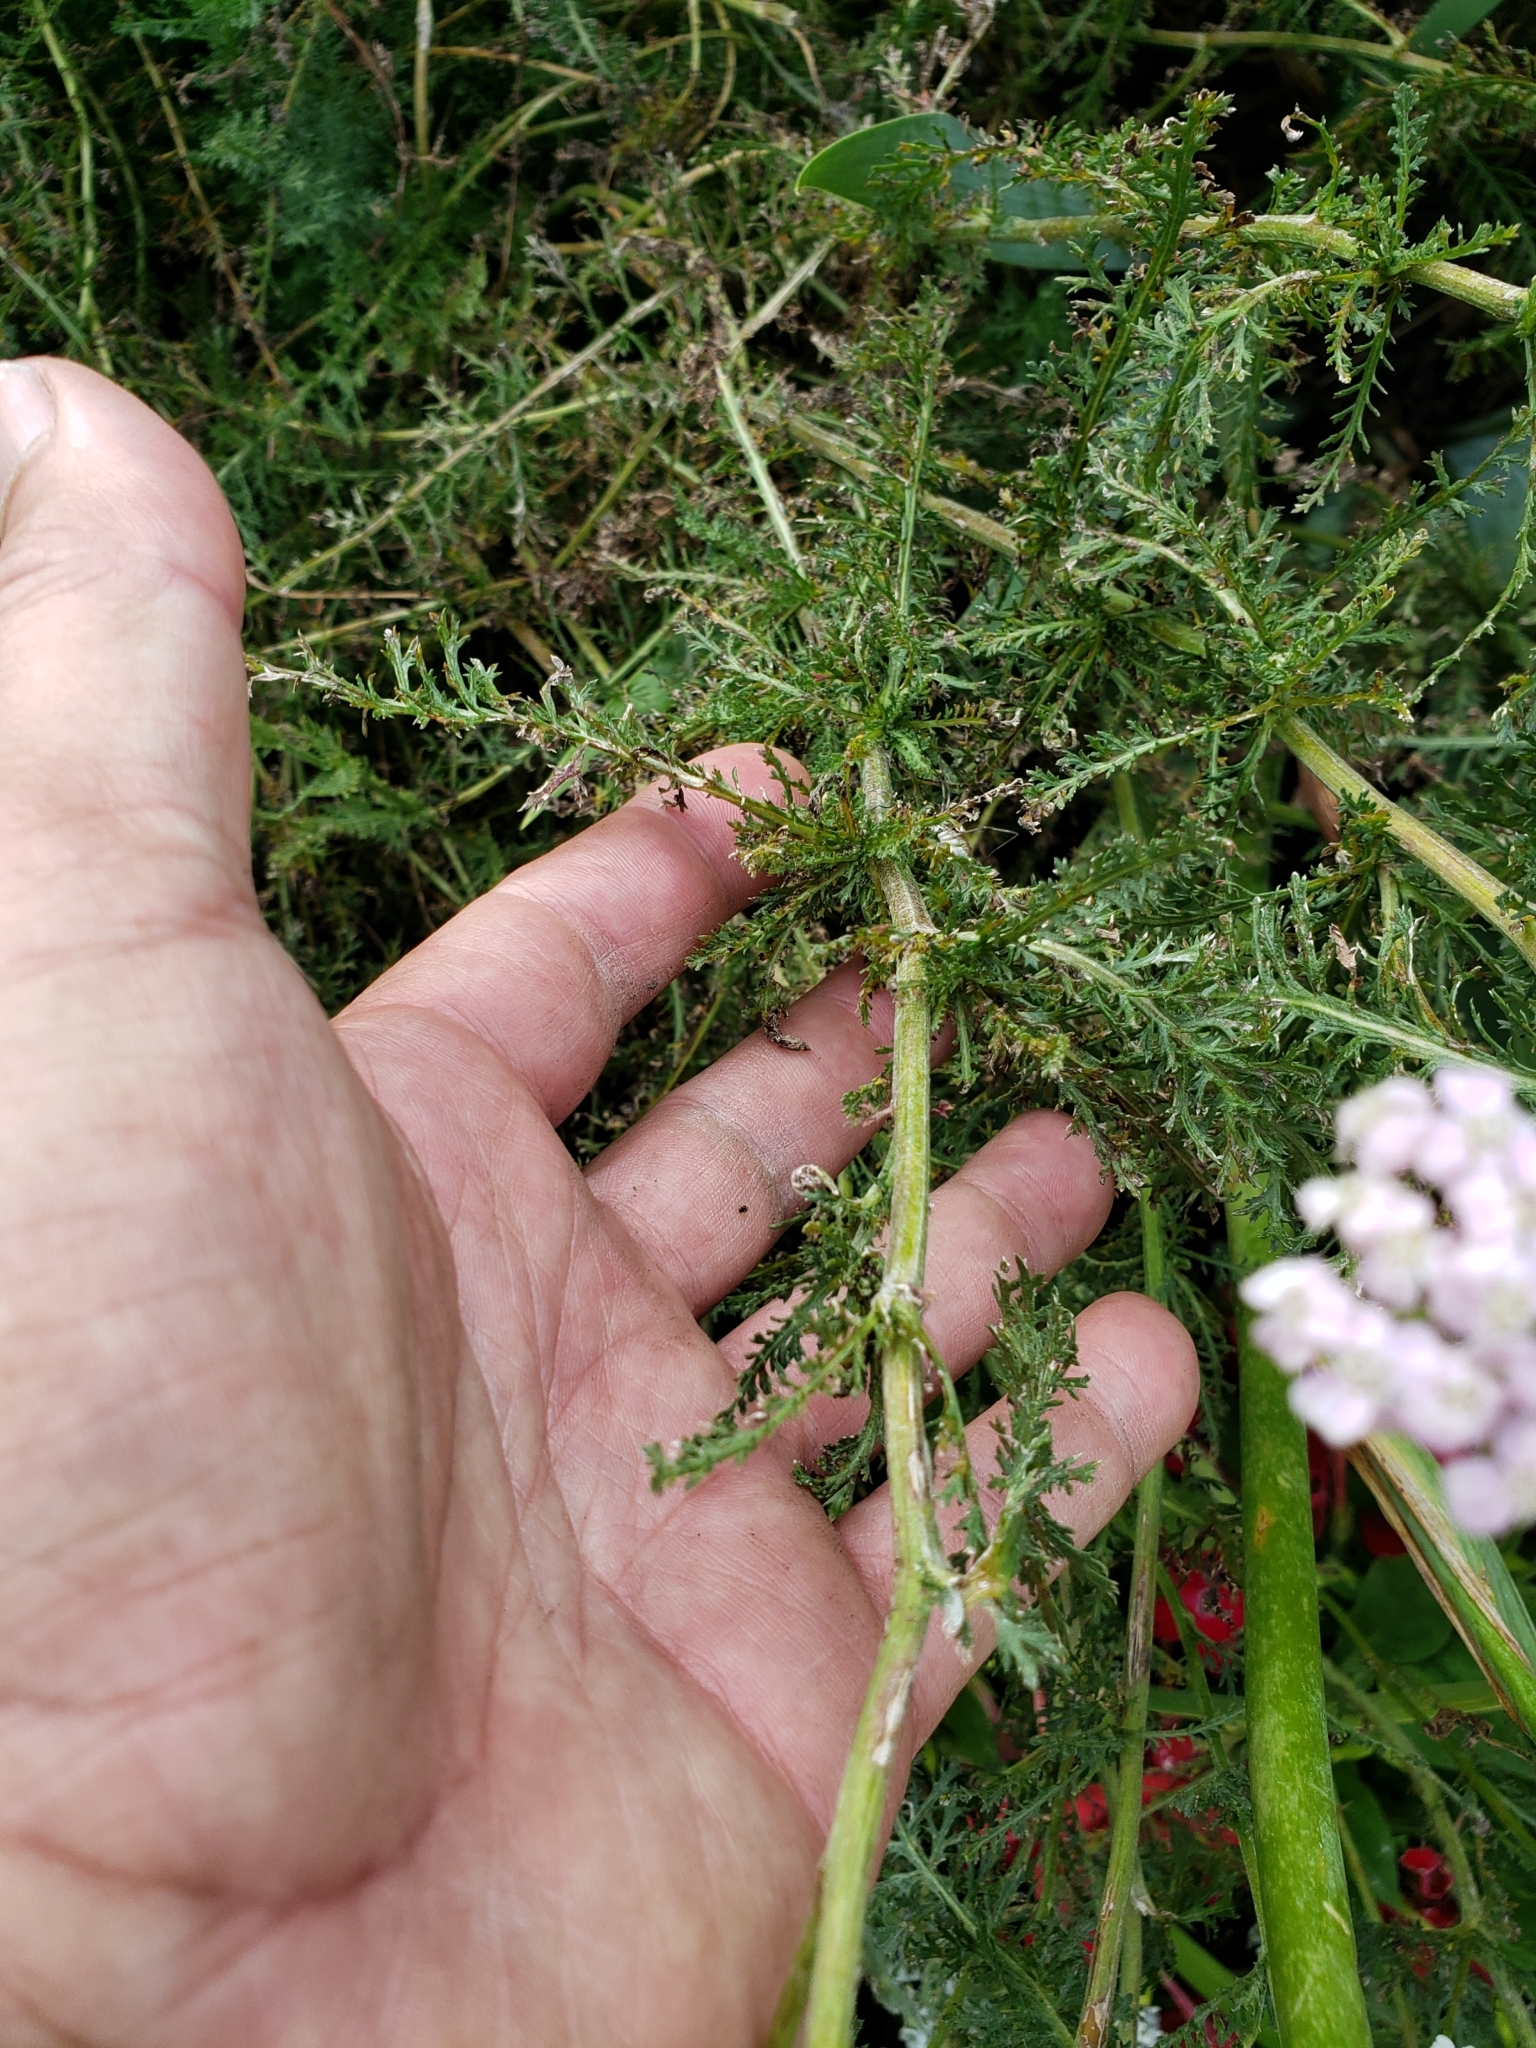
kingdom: Plantae
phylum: Tracheophyta
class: Magnoliopsida
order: Asterales
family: Asteraceae
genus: Achillea
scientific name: Achillea millefolium
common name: Yarrow
